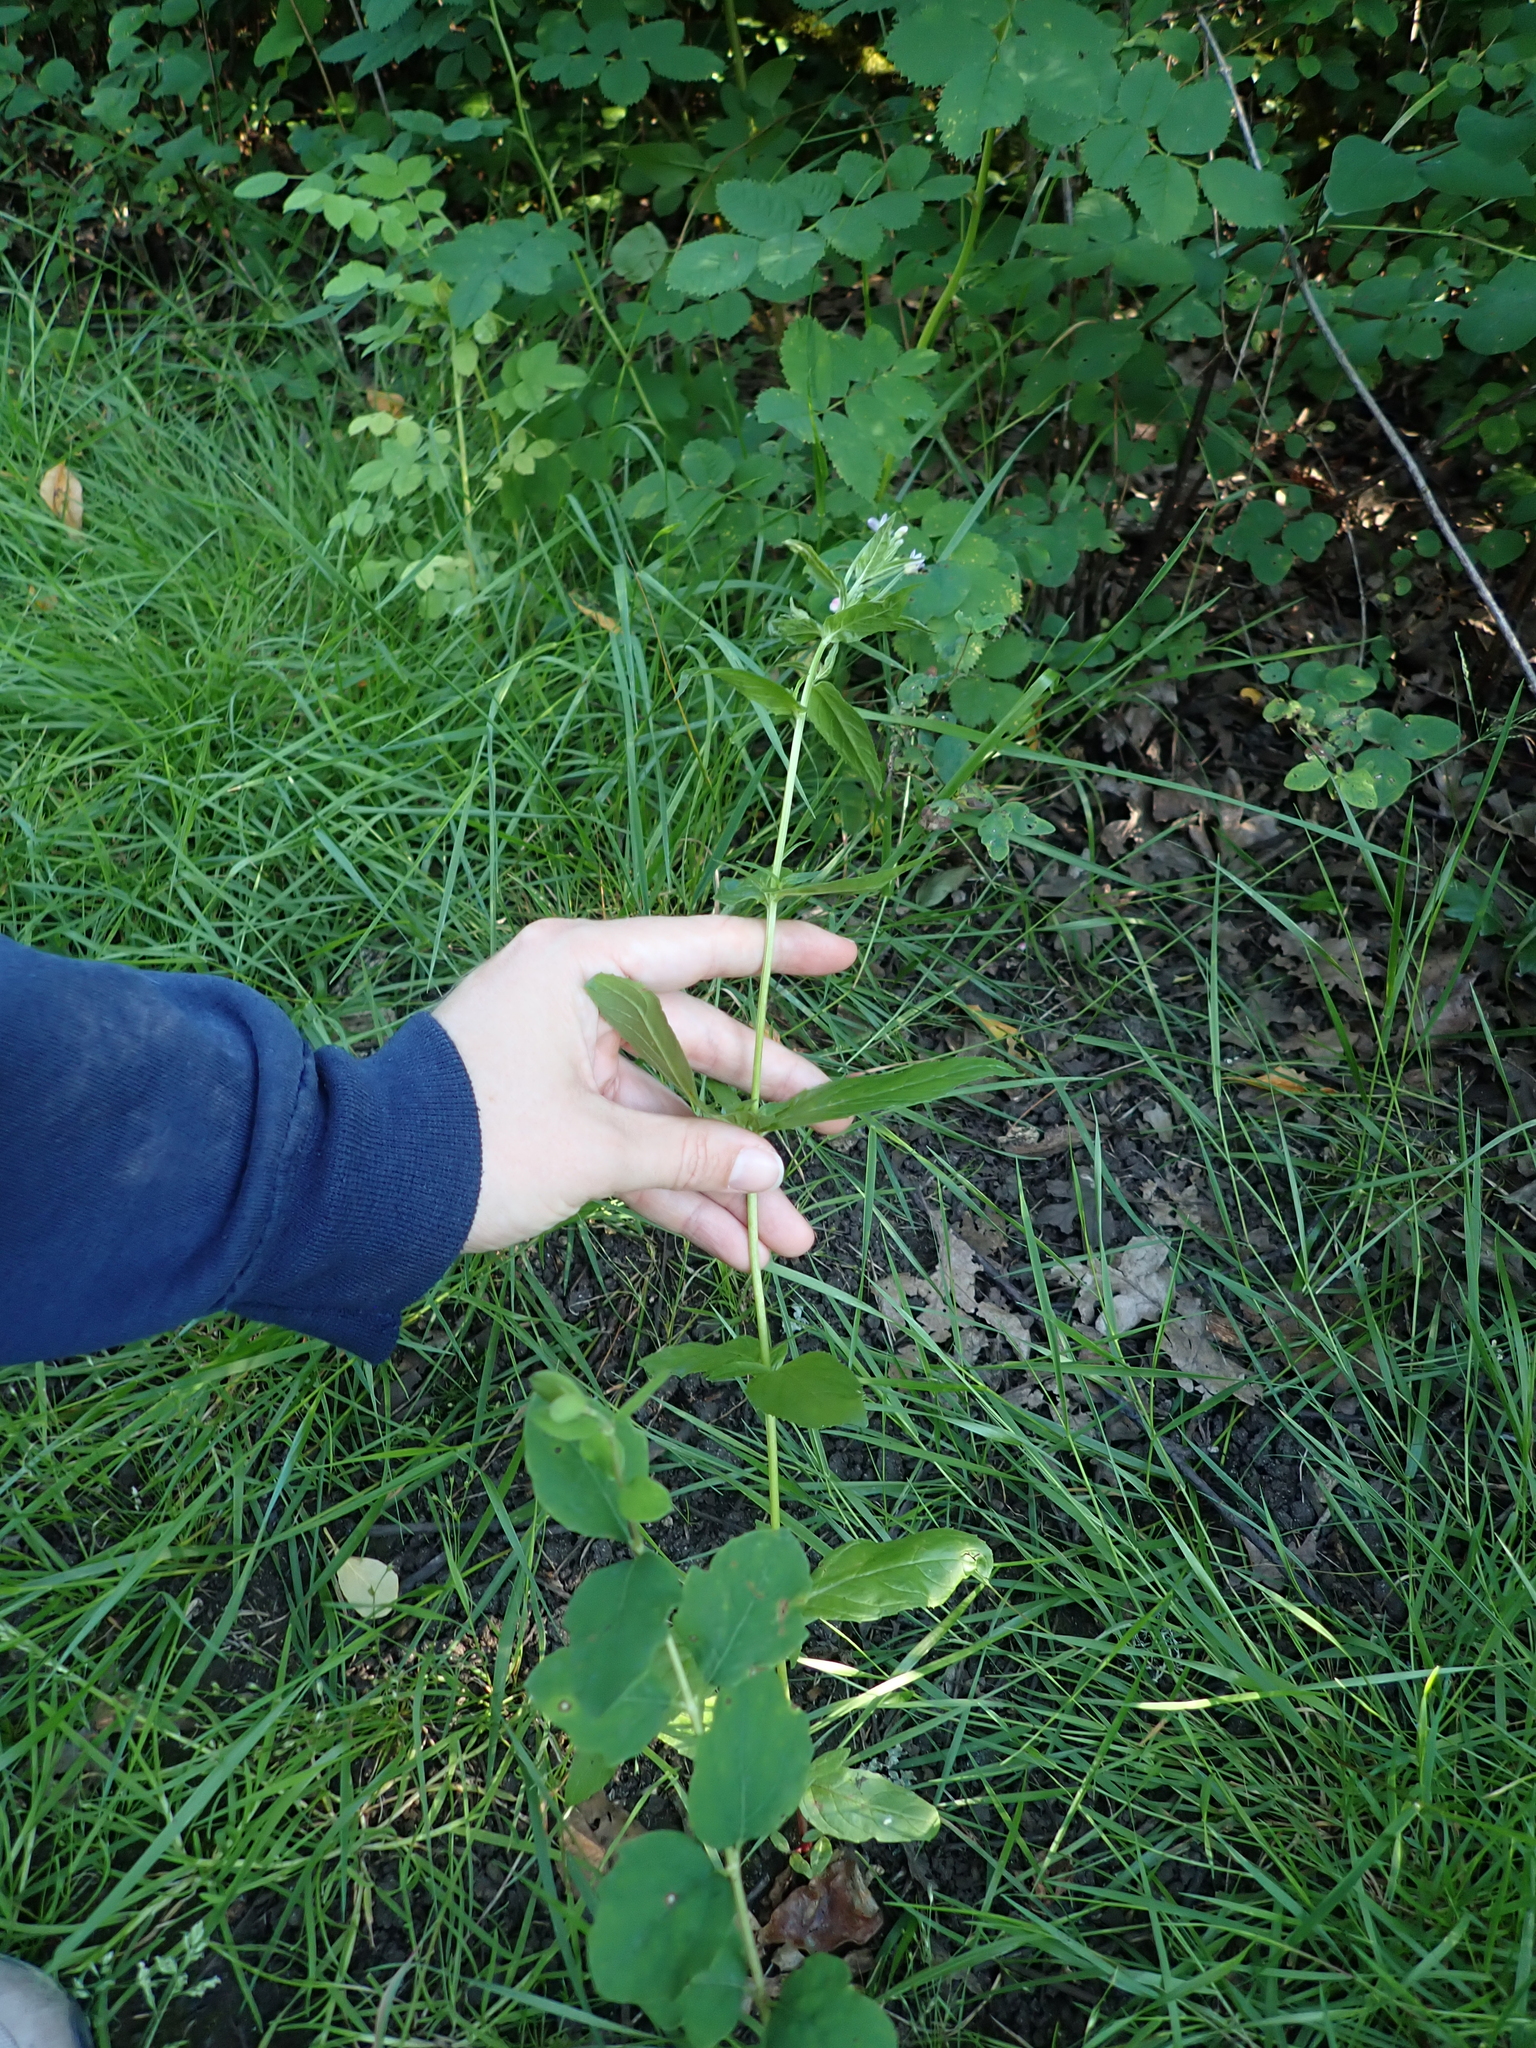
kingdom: Plantae
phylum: Tracheophyta
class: Magnoliopsida
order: Myrtales
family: Onagraceae
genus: Epilobium
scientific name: Epilobium ciliatum
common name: American willowherb
